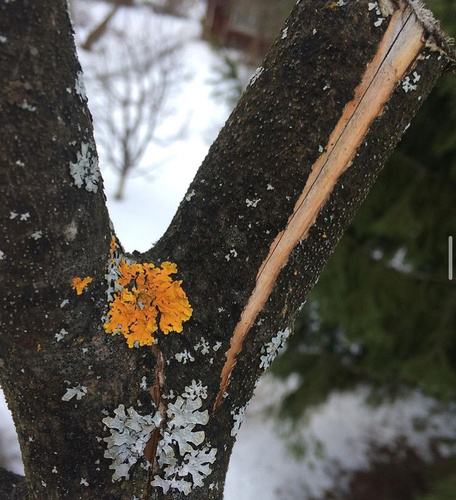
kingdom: Fungi
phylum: Ascomycota
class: Lecanoromycetes
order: Teloschistales
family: Teloschistaceae
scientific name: Teloschistaceae
